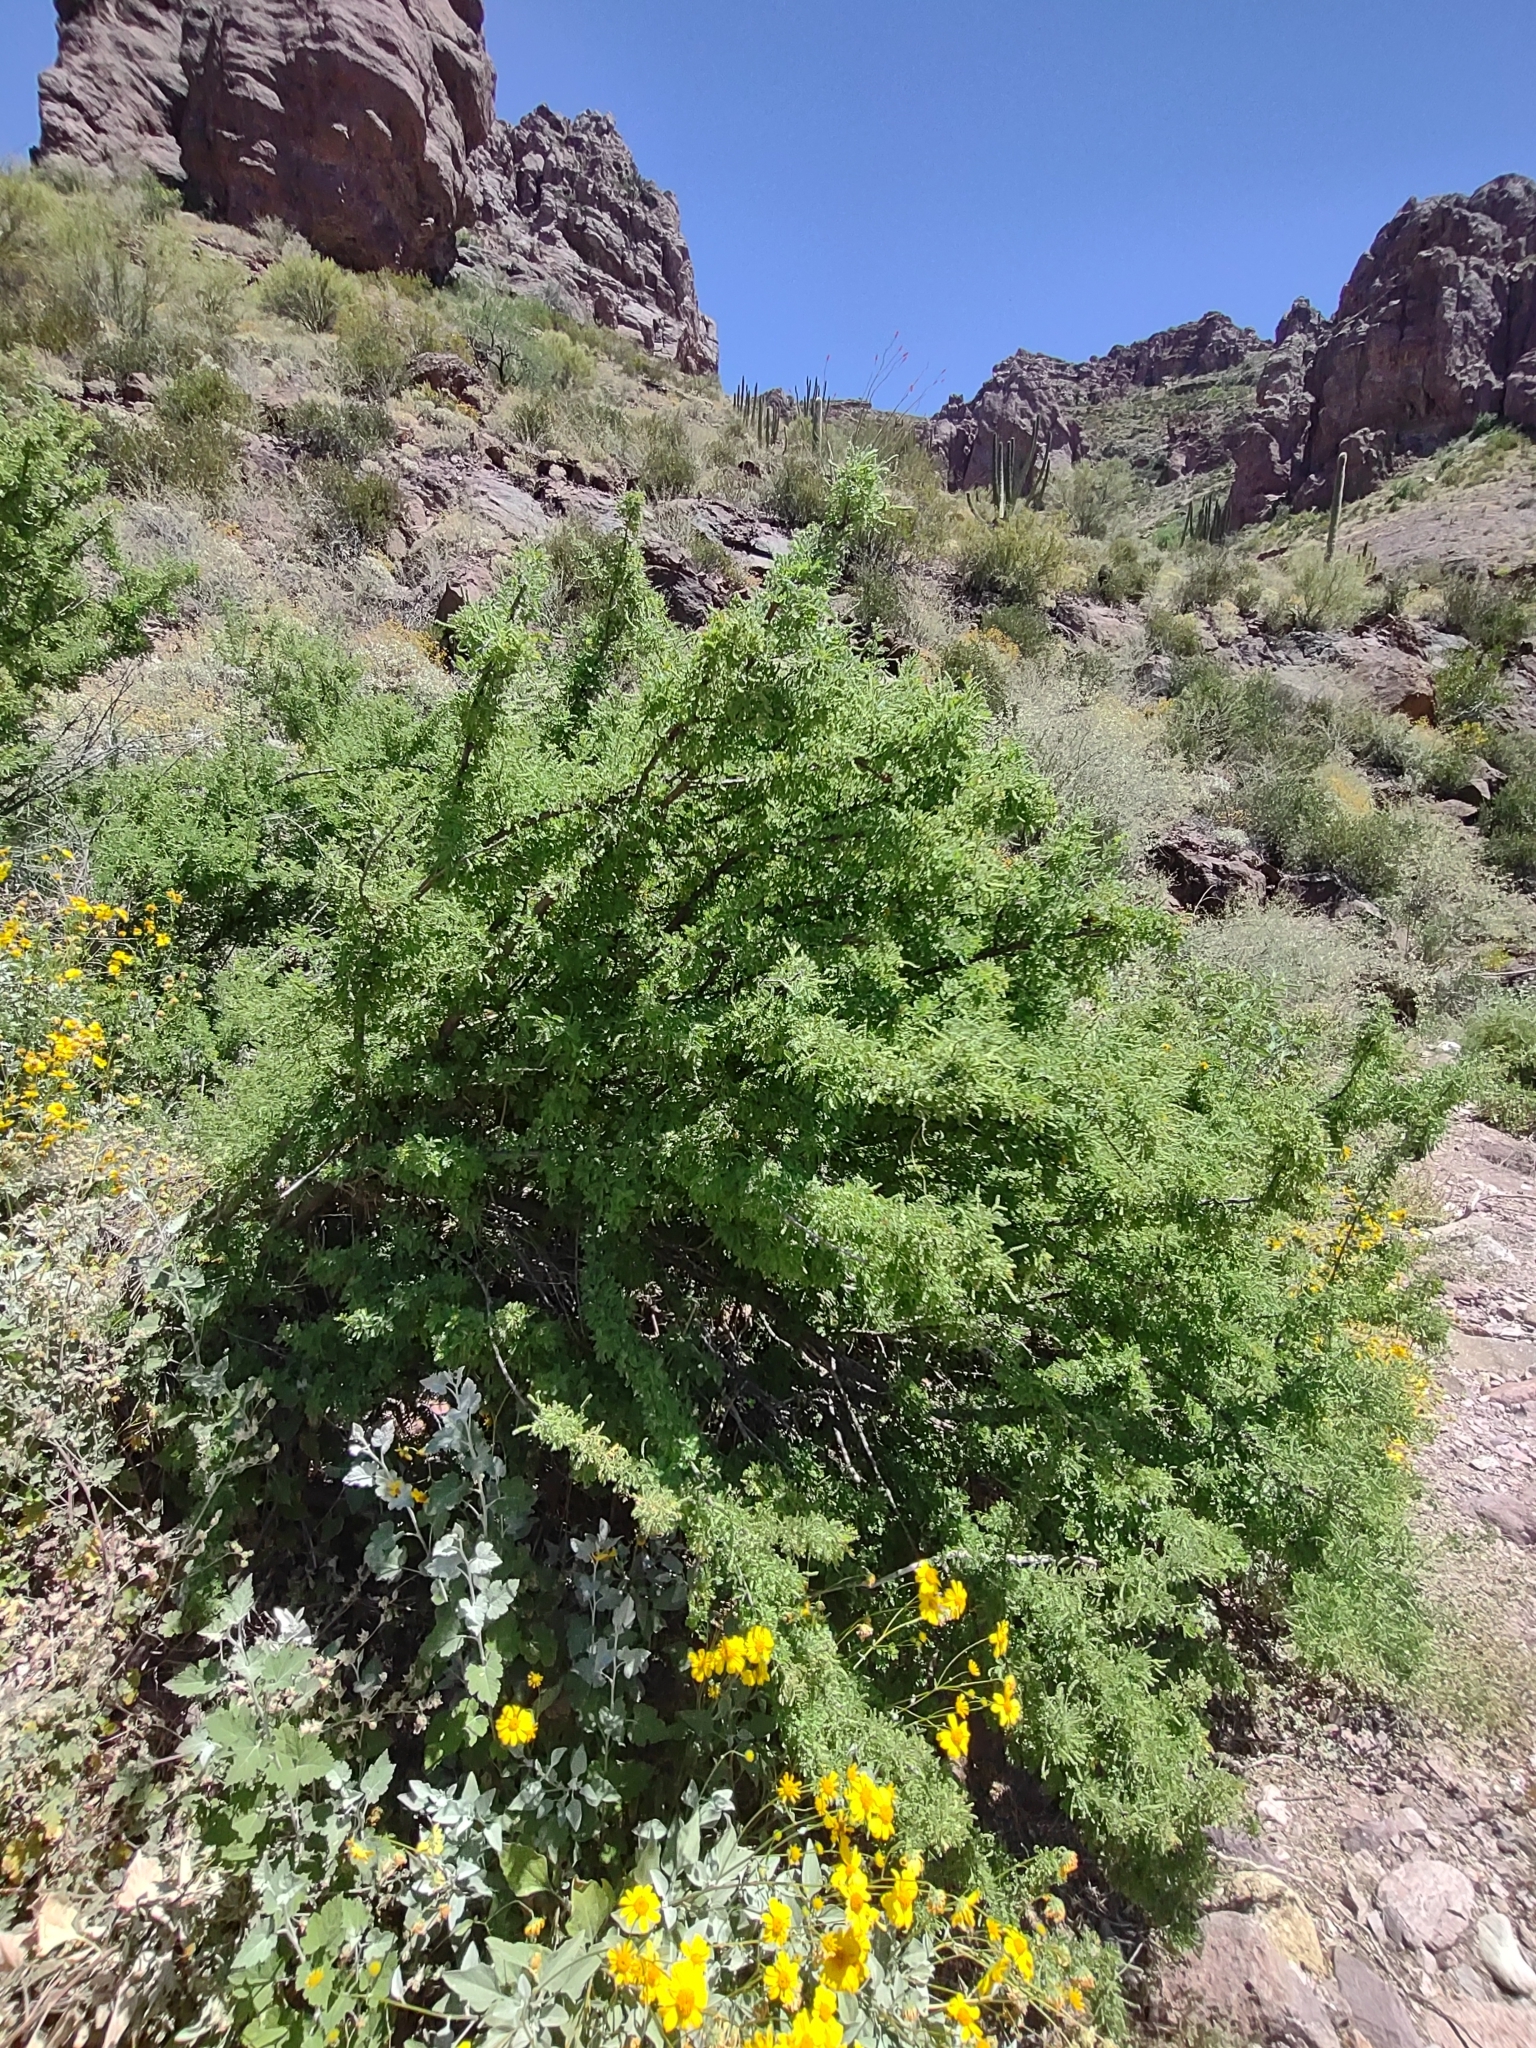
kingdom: Plantae
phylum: Tracheophyta
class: Magnoliopsida
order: Fabales
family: Fabaceae
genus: Senegalia
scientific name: Senegalia greggii
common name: Texas-mimosa
